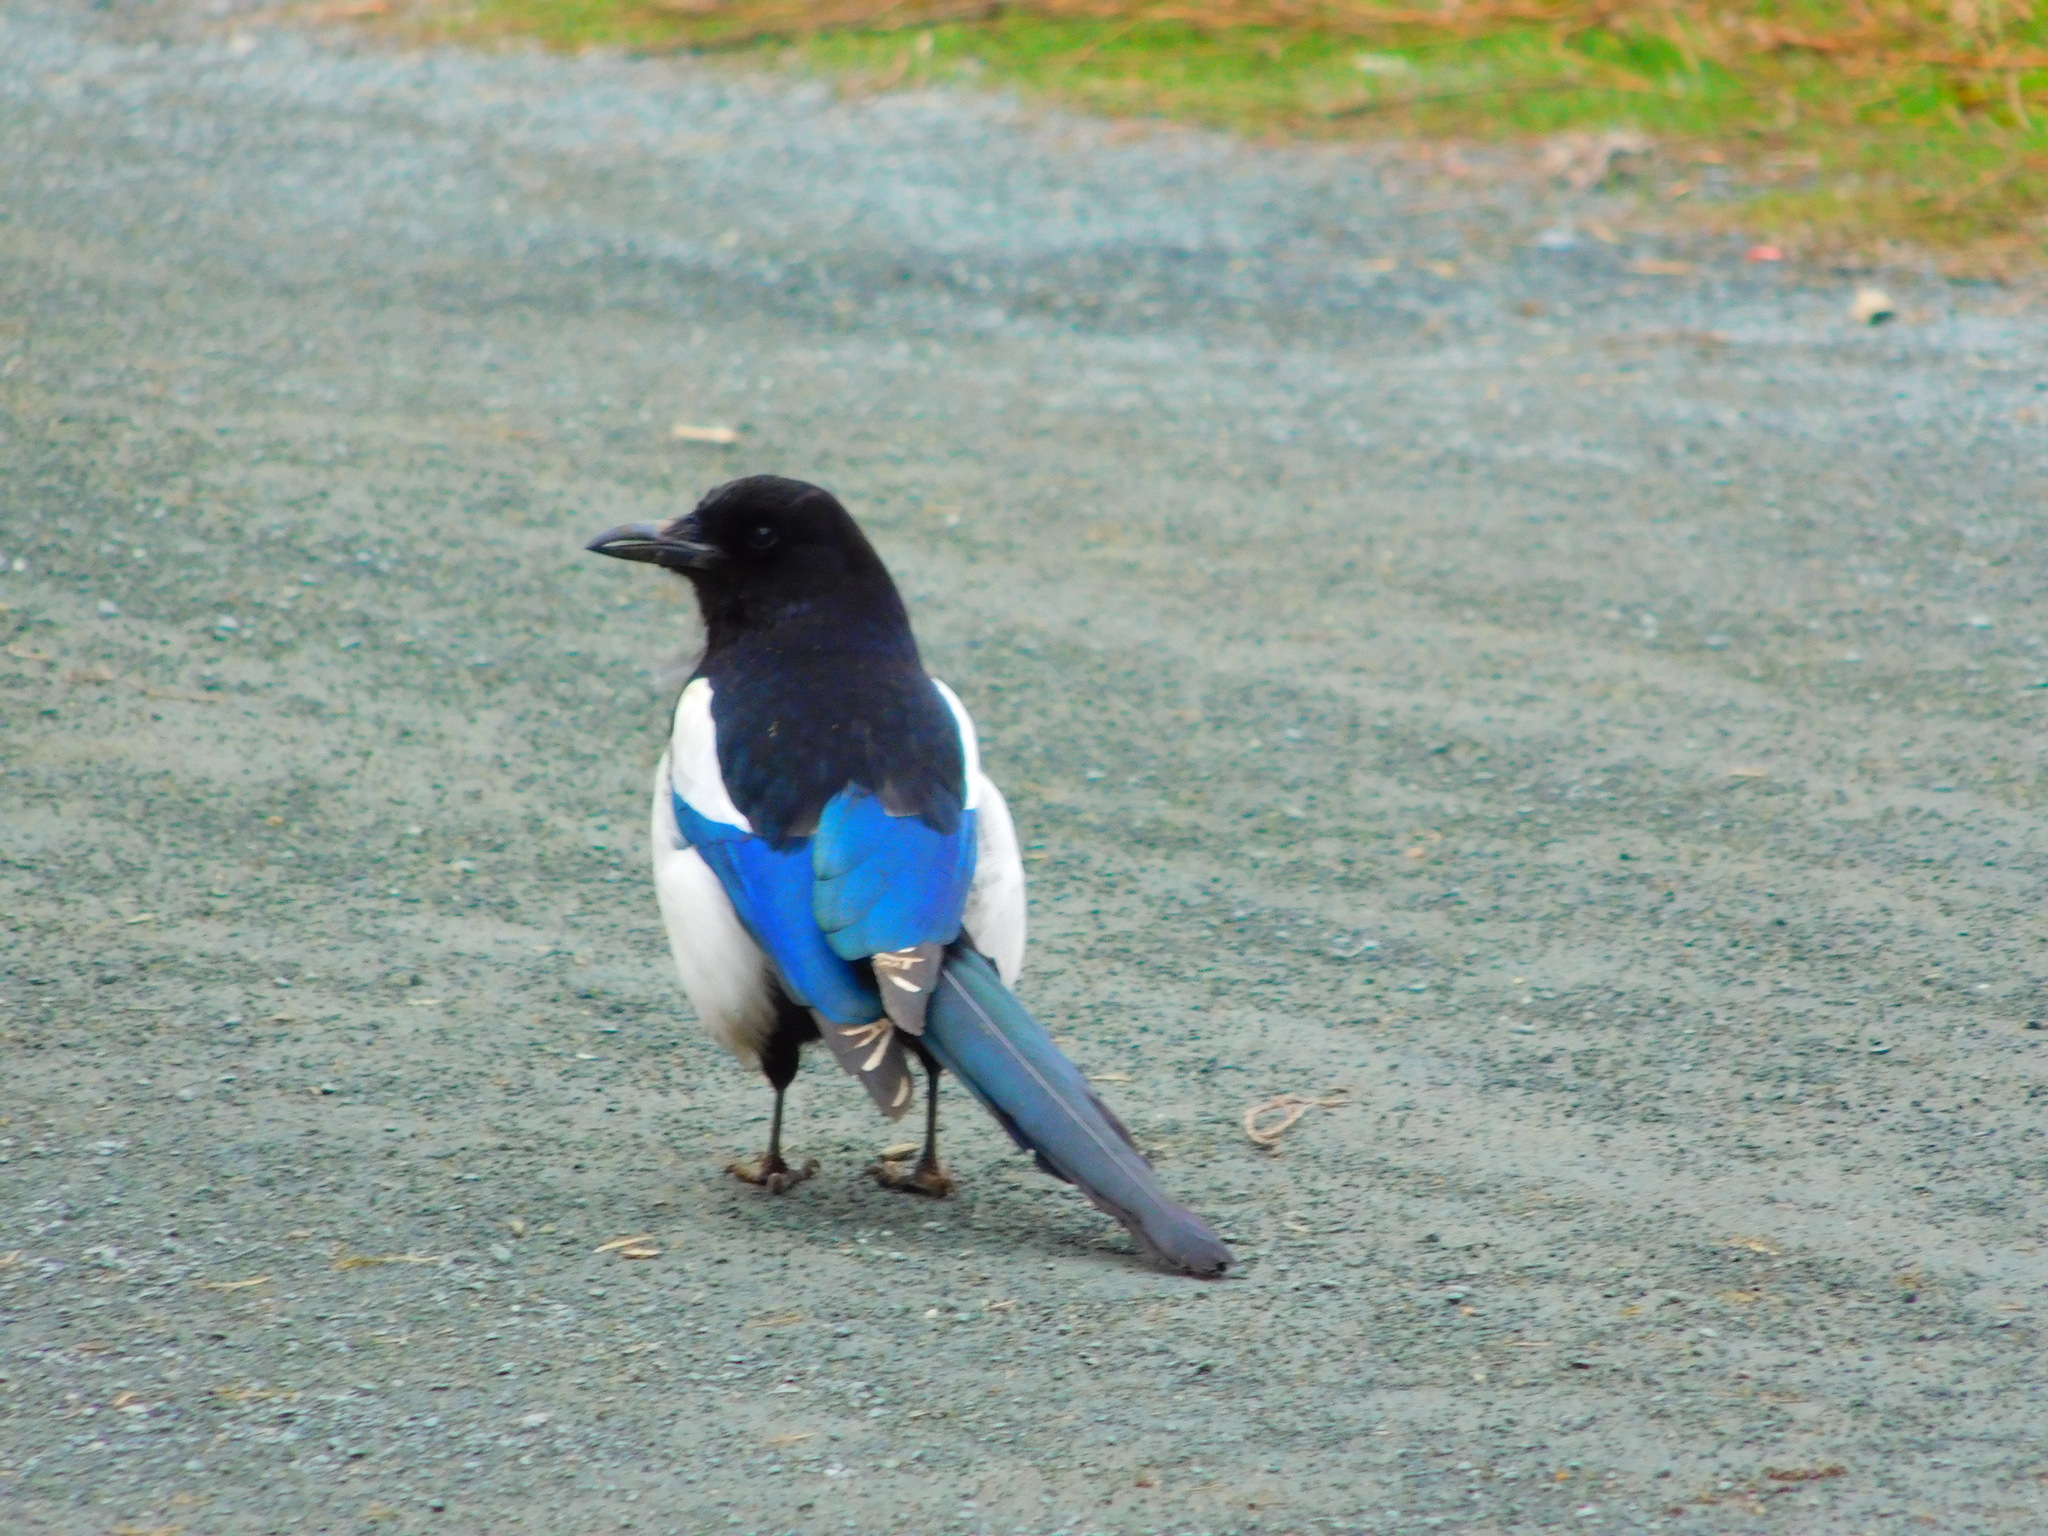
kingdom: Animalia
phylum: Chordata
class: Aves
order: Passeriformes
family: Corvidae
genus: Pica
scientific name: Pica pica
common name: Eurasian magpie
